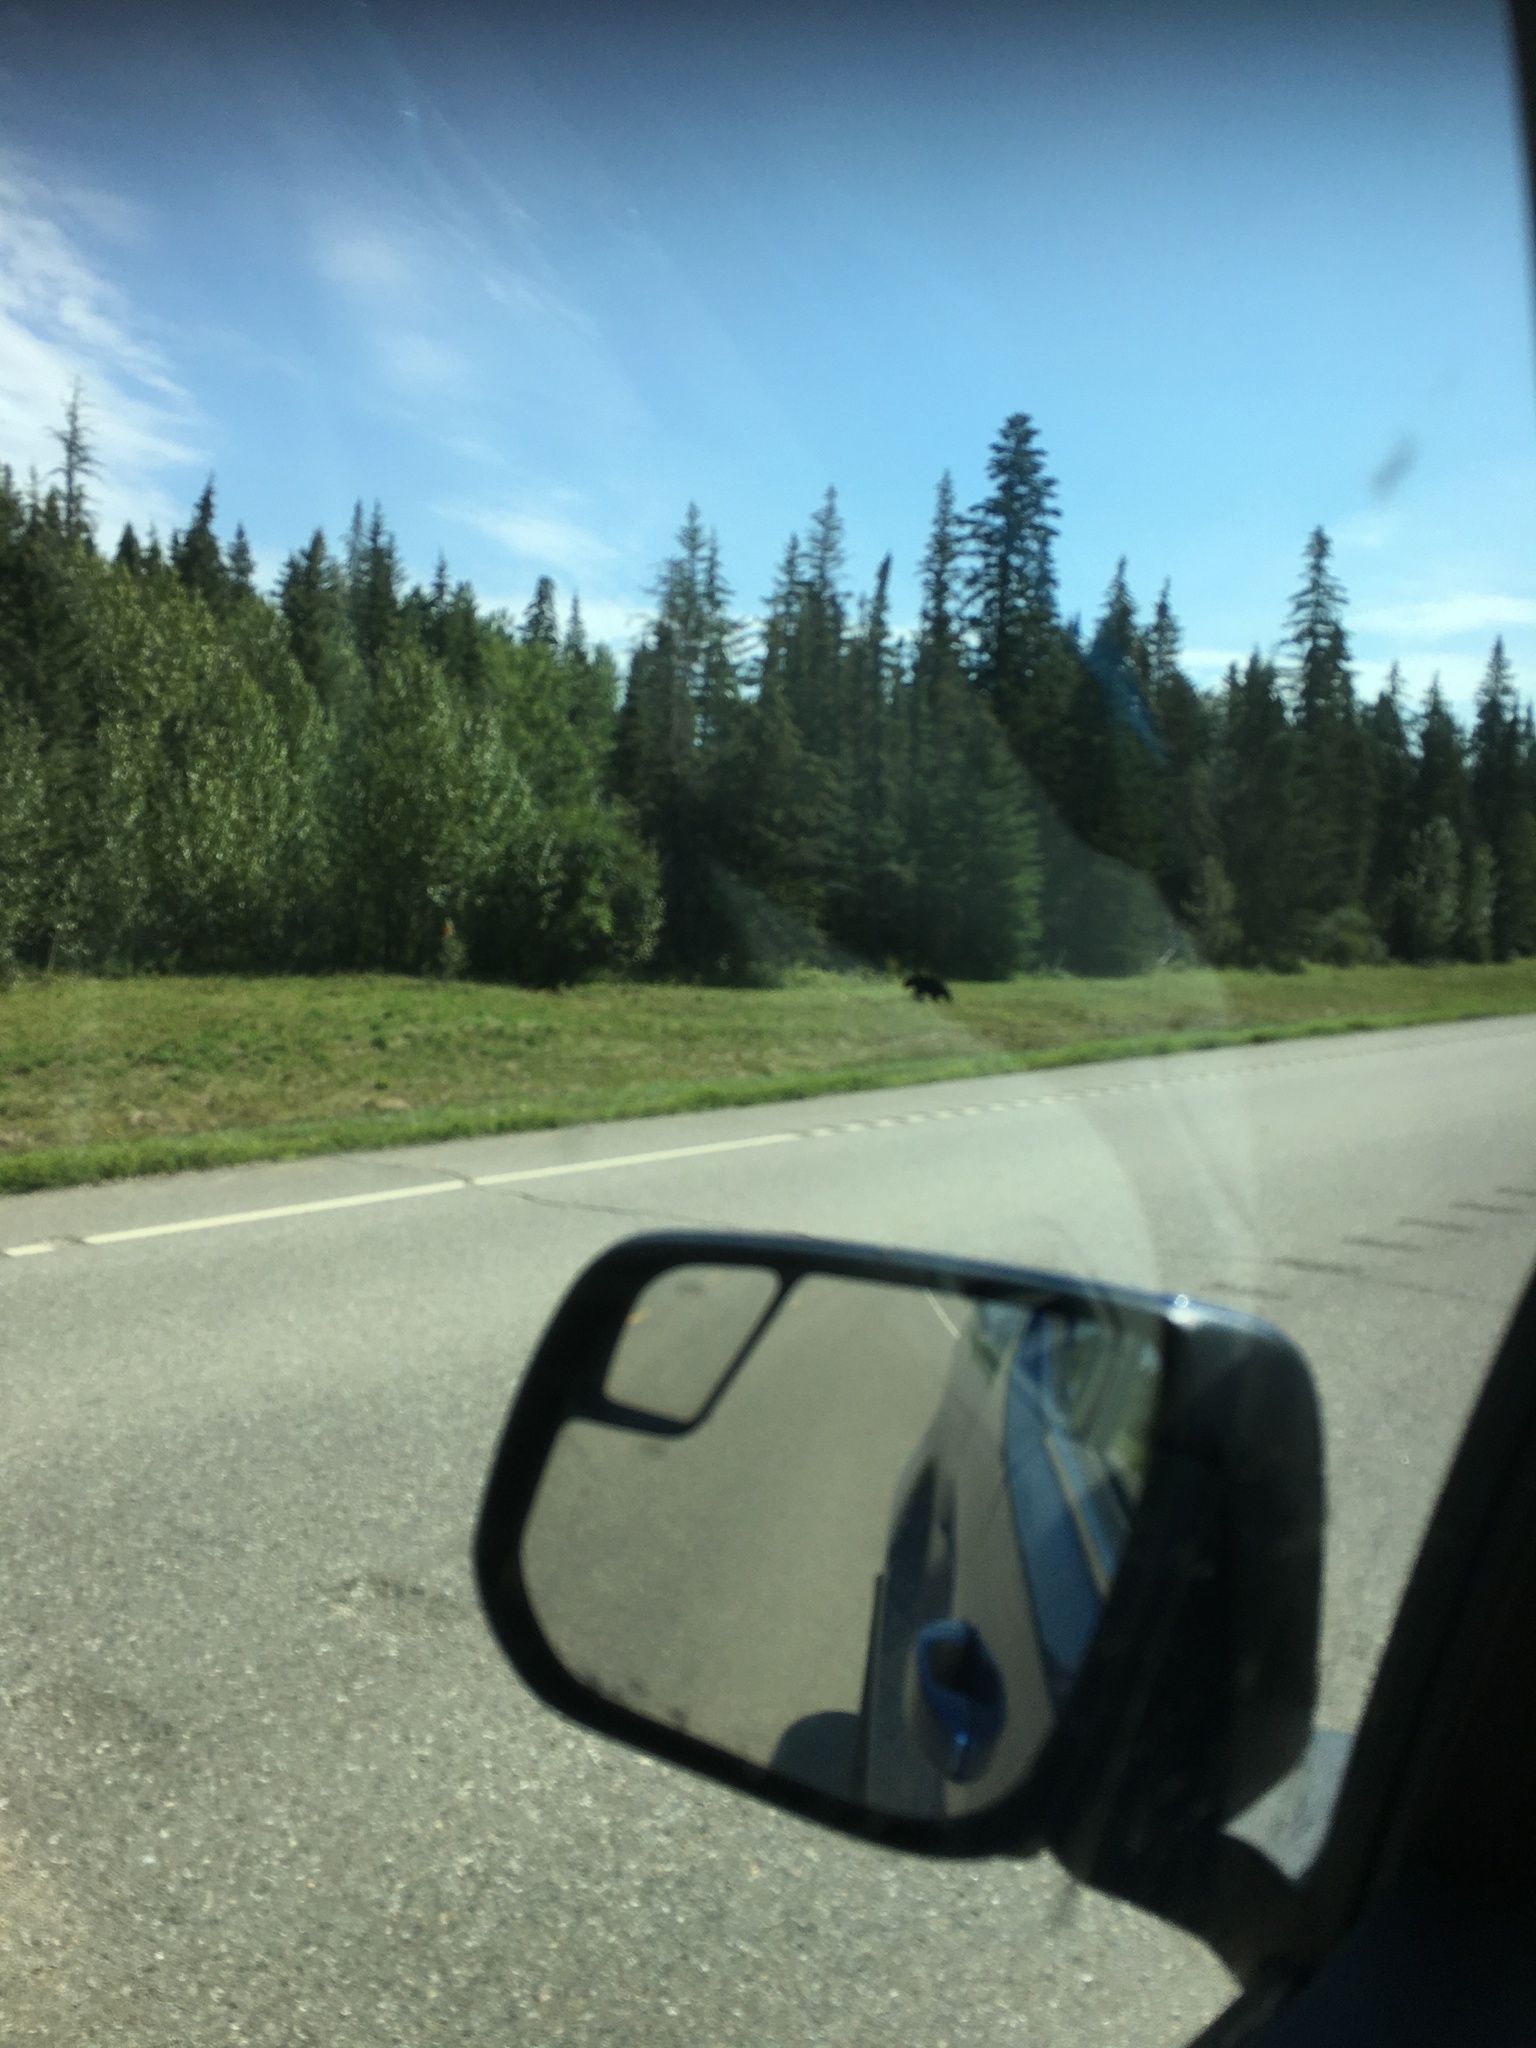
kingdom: Animalia
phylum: Chordata
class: Mammalia
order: Carnivora
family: Ursidae
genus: Ursus
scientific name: Ursus americanus
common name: American black bear
